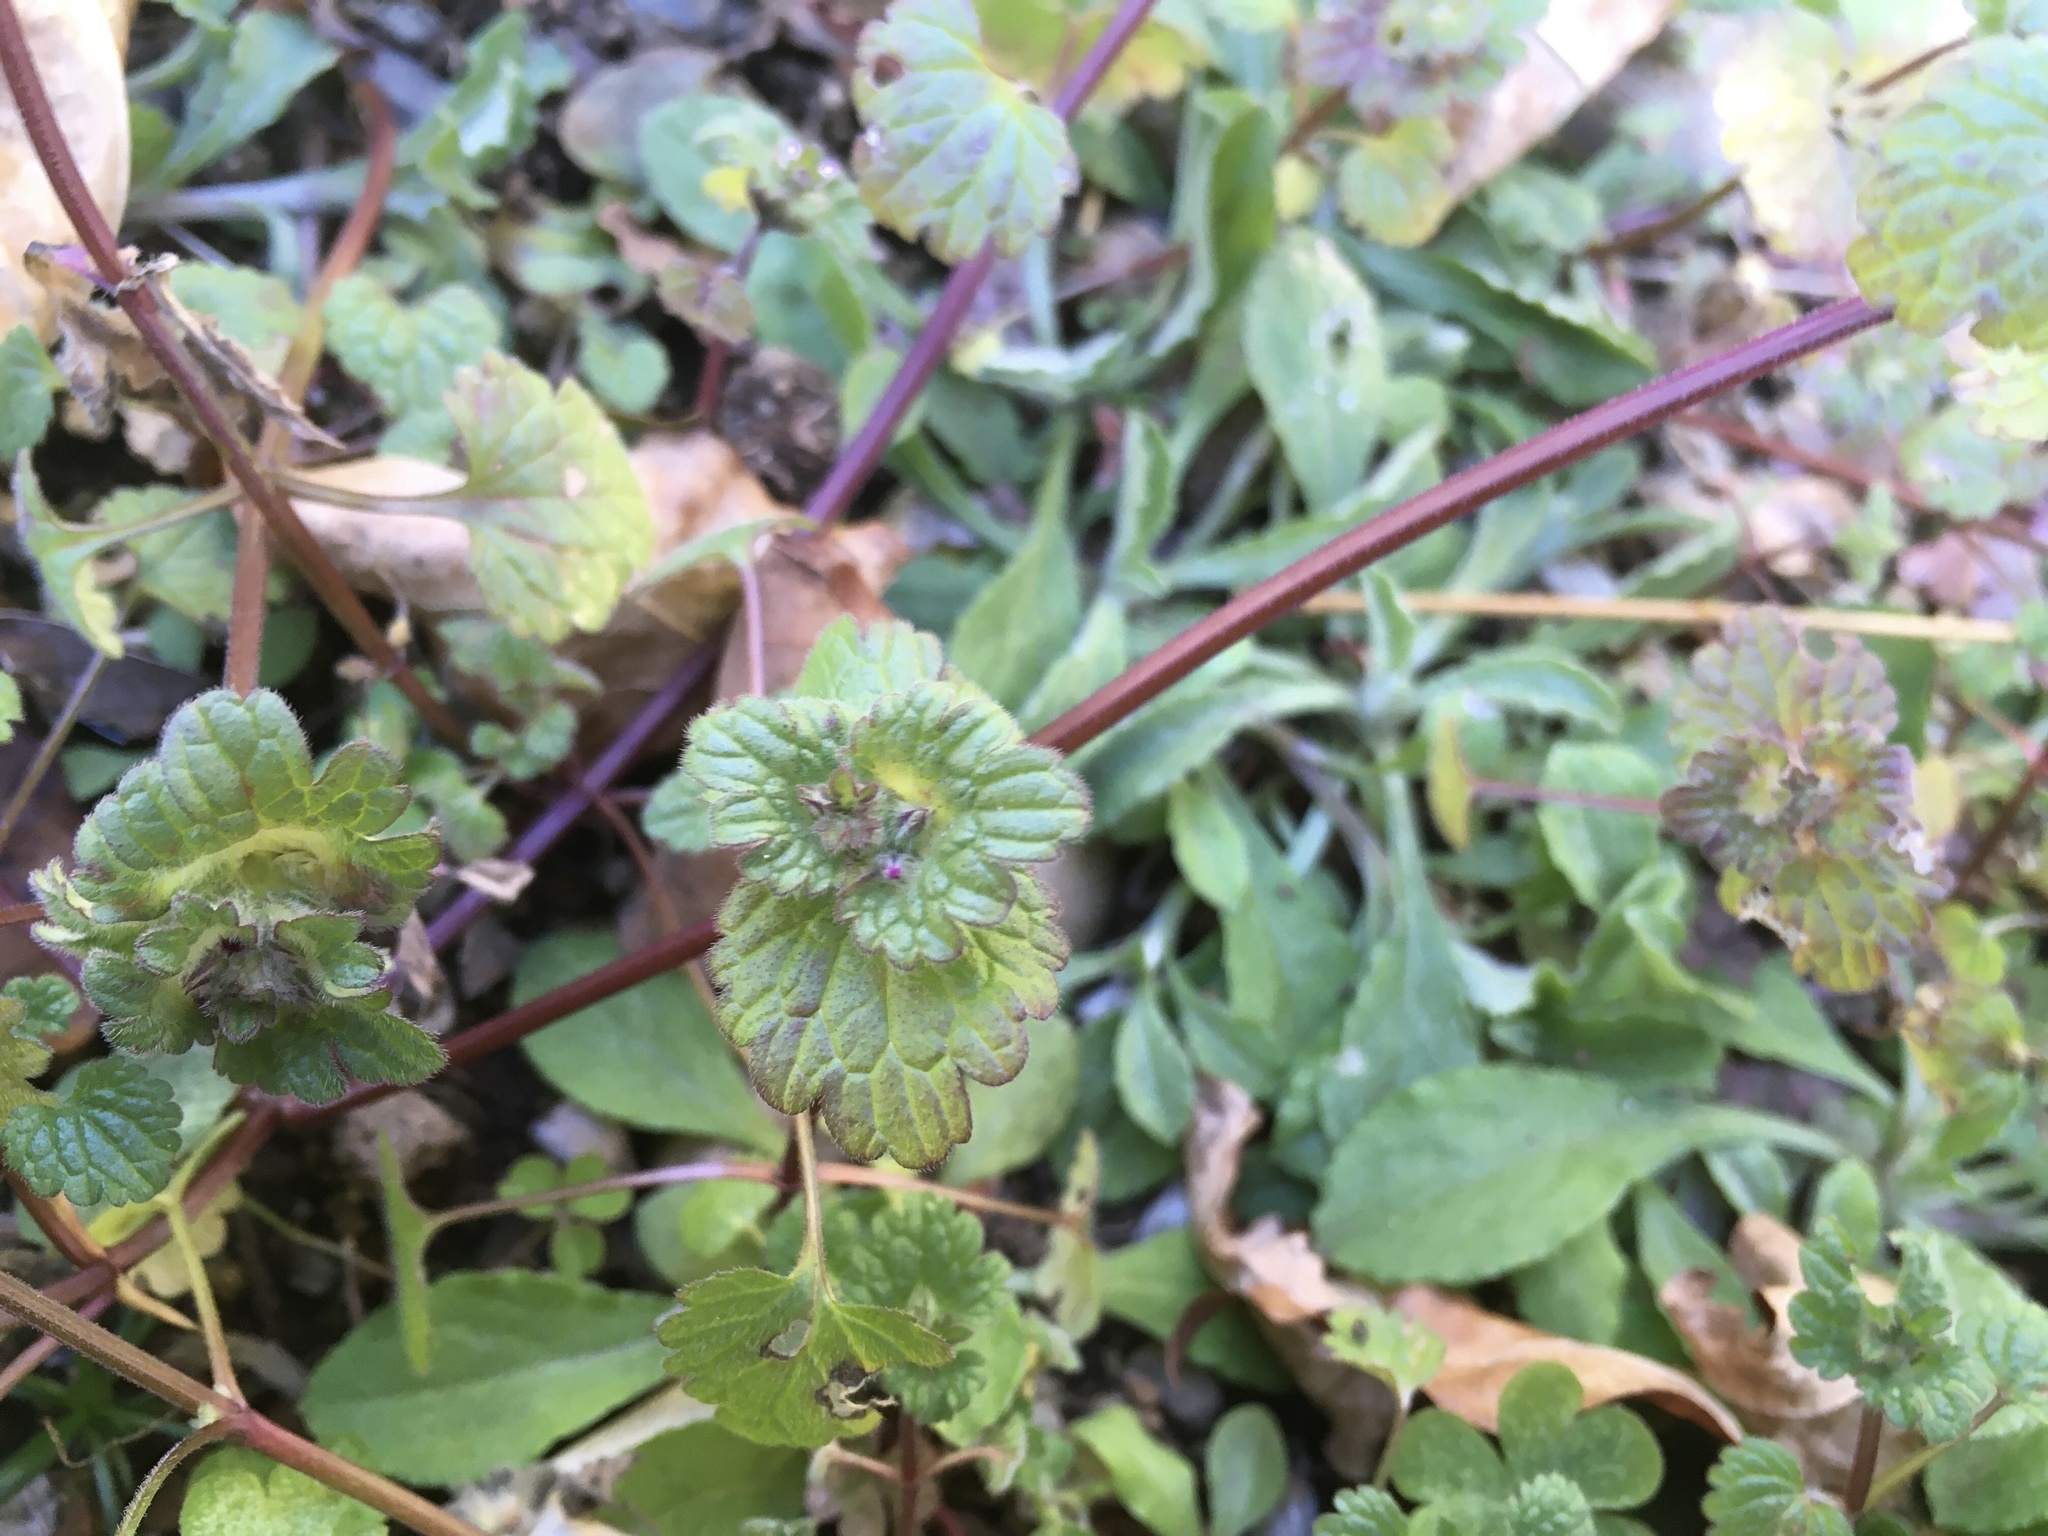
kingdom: Plantae
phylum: Tracheophyta
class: Magnoliopsida
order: Lamiales
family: Lamiaceae
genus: Lamium
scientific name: Lamium amplexicaule
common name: Henbit dead-nettle
